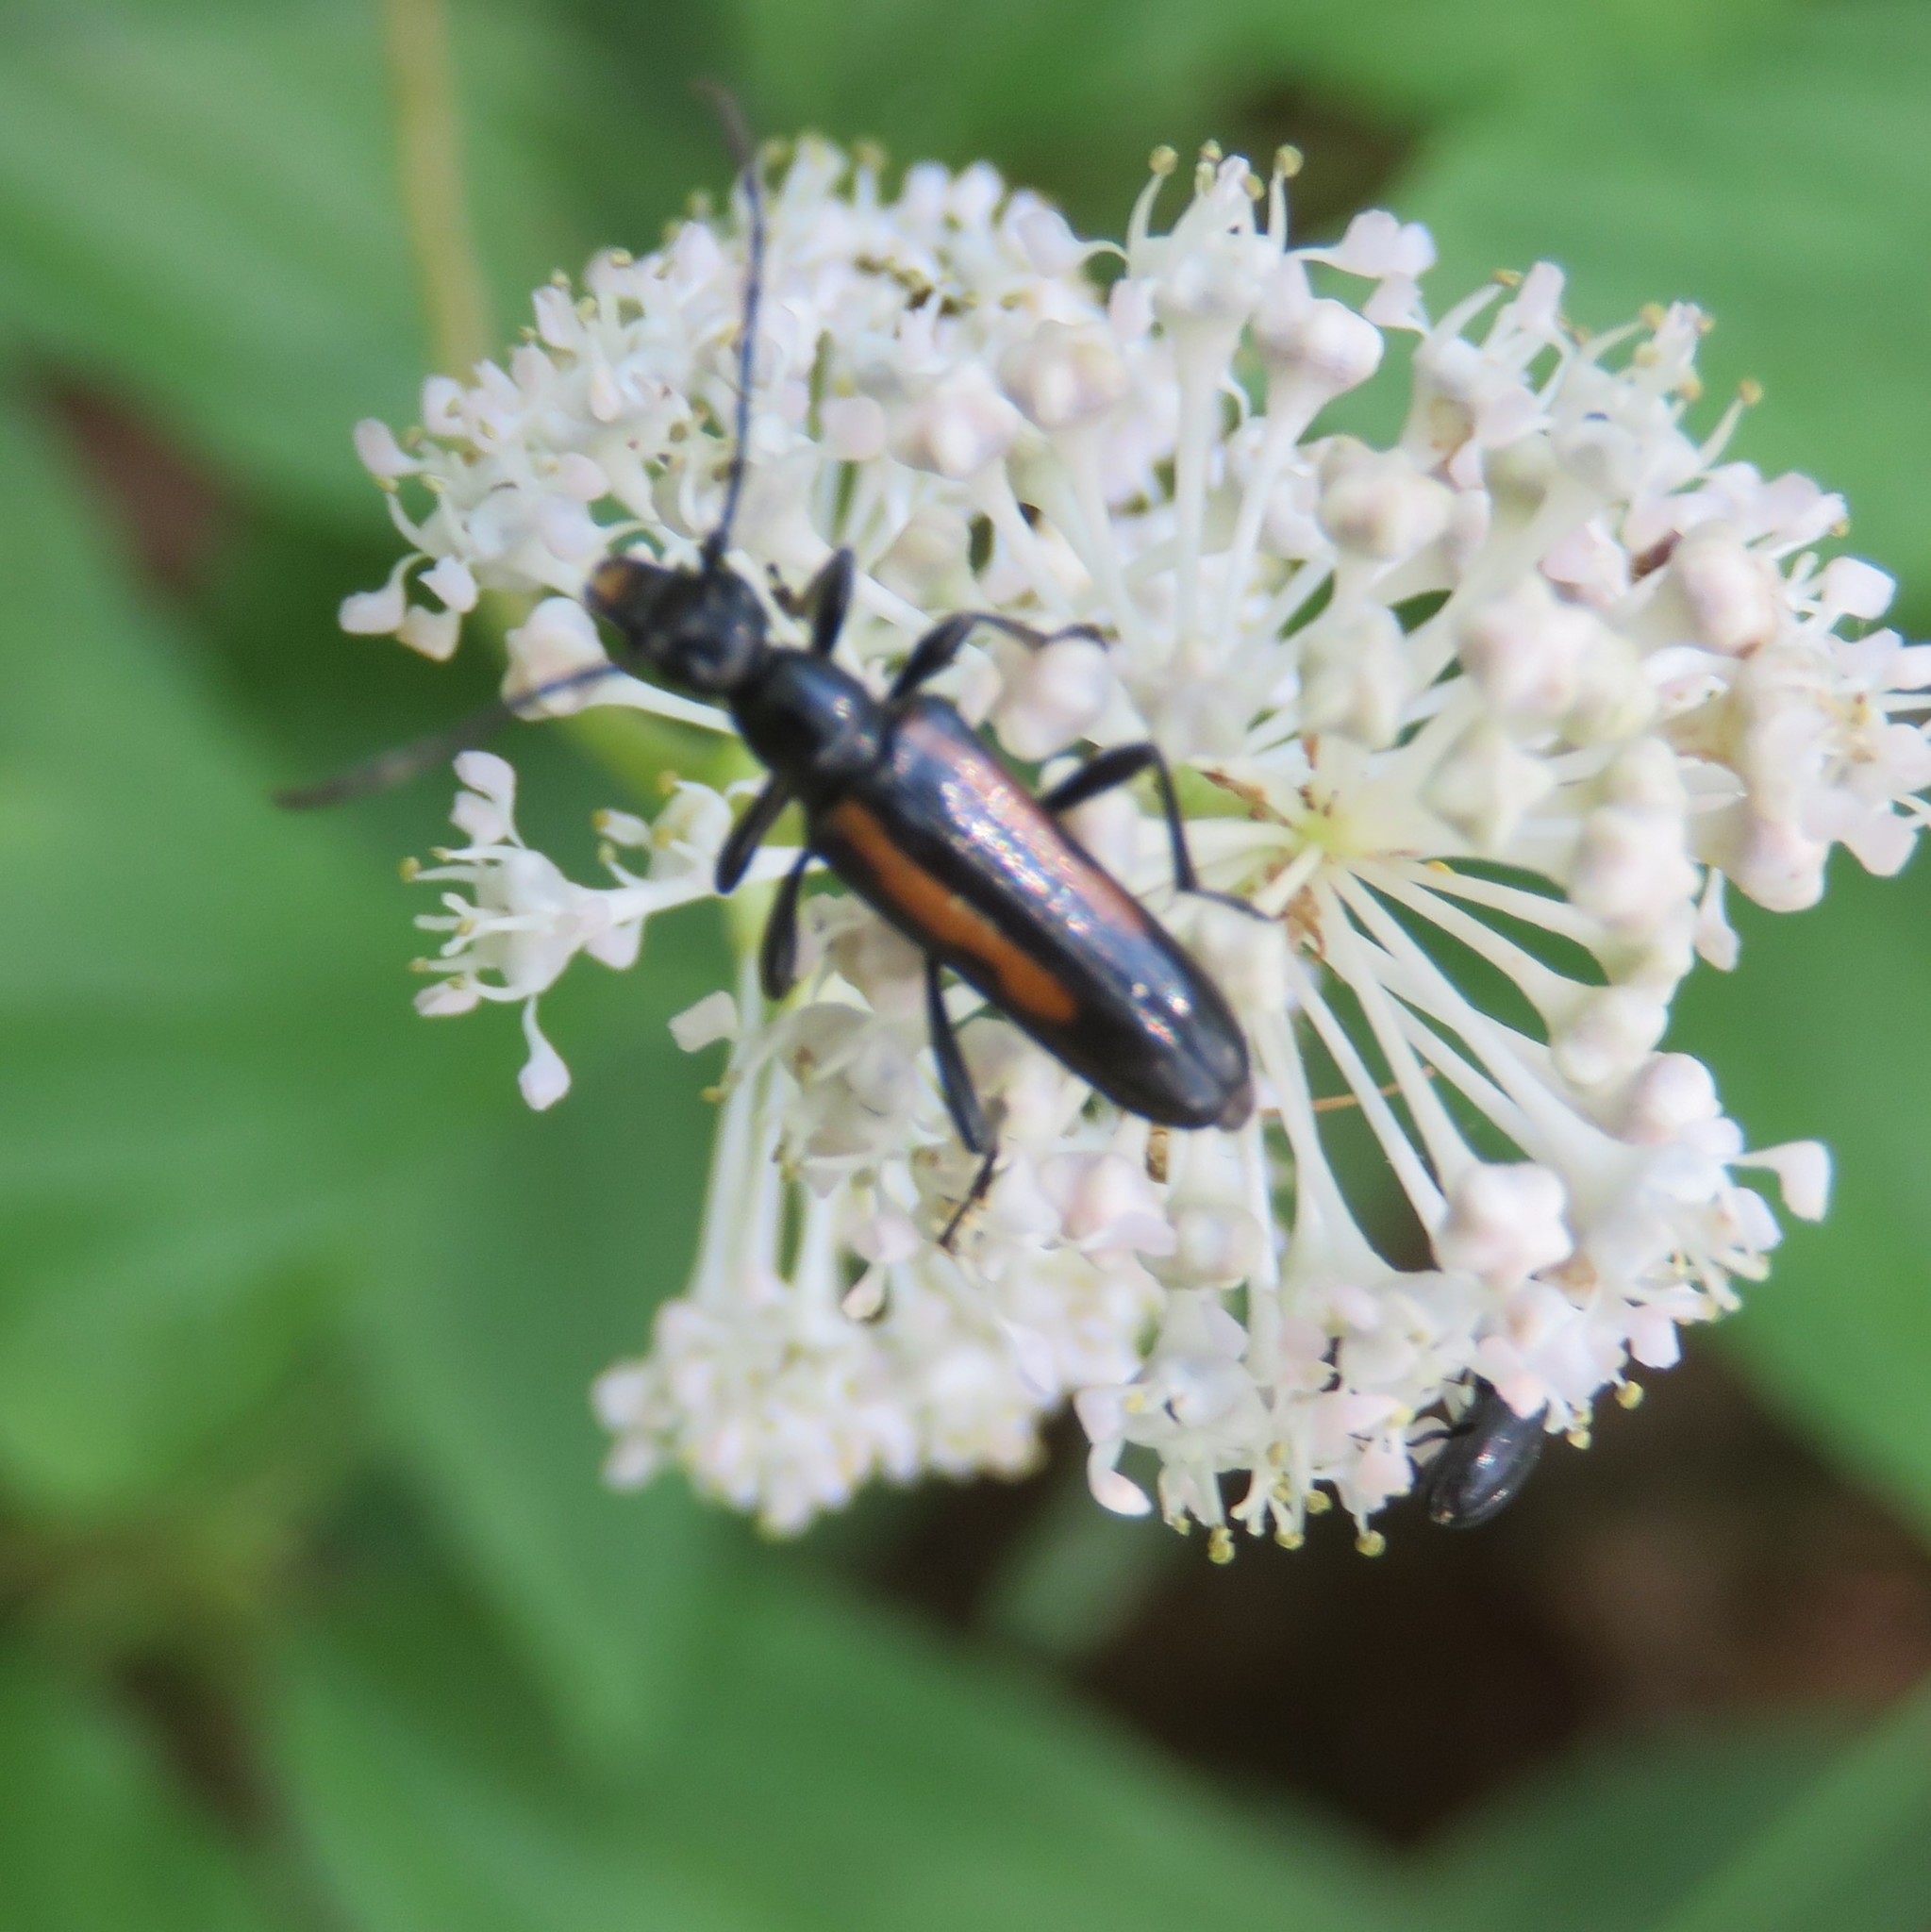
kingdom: Animalia
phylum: Arthropoda
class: Insecta
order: Coleoptera
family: Cerambycidae
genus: Strangalepta
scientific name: Strangalepta abbreviata
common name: Strangalepta flower longhorn beetle
